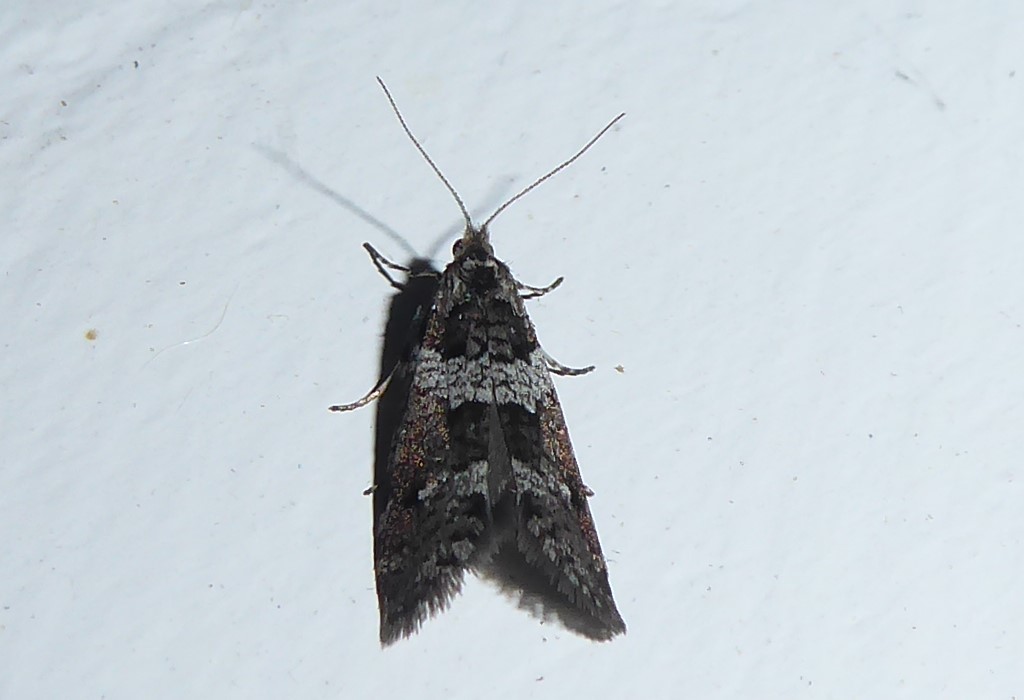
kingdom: Animalia
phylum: Arthropoda
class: Insecta
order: Lepidoptera
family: Psychidae
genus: Lepidoscia
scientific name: Lepidoscia heliochares
